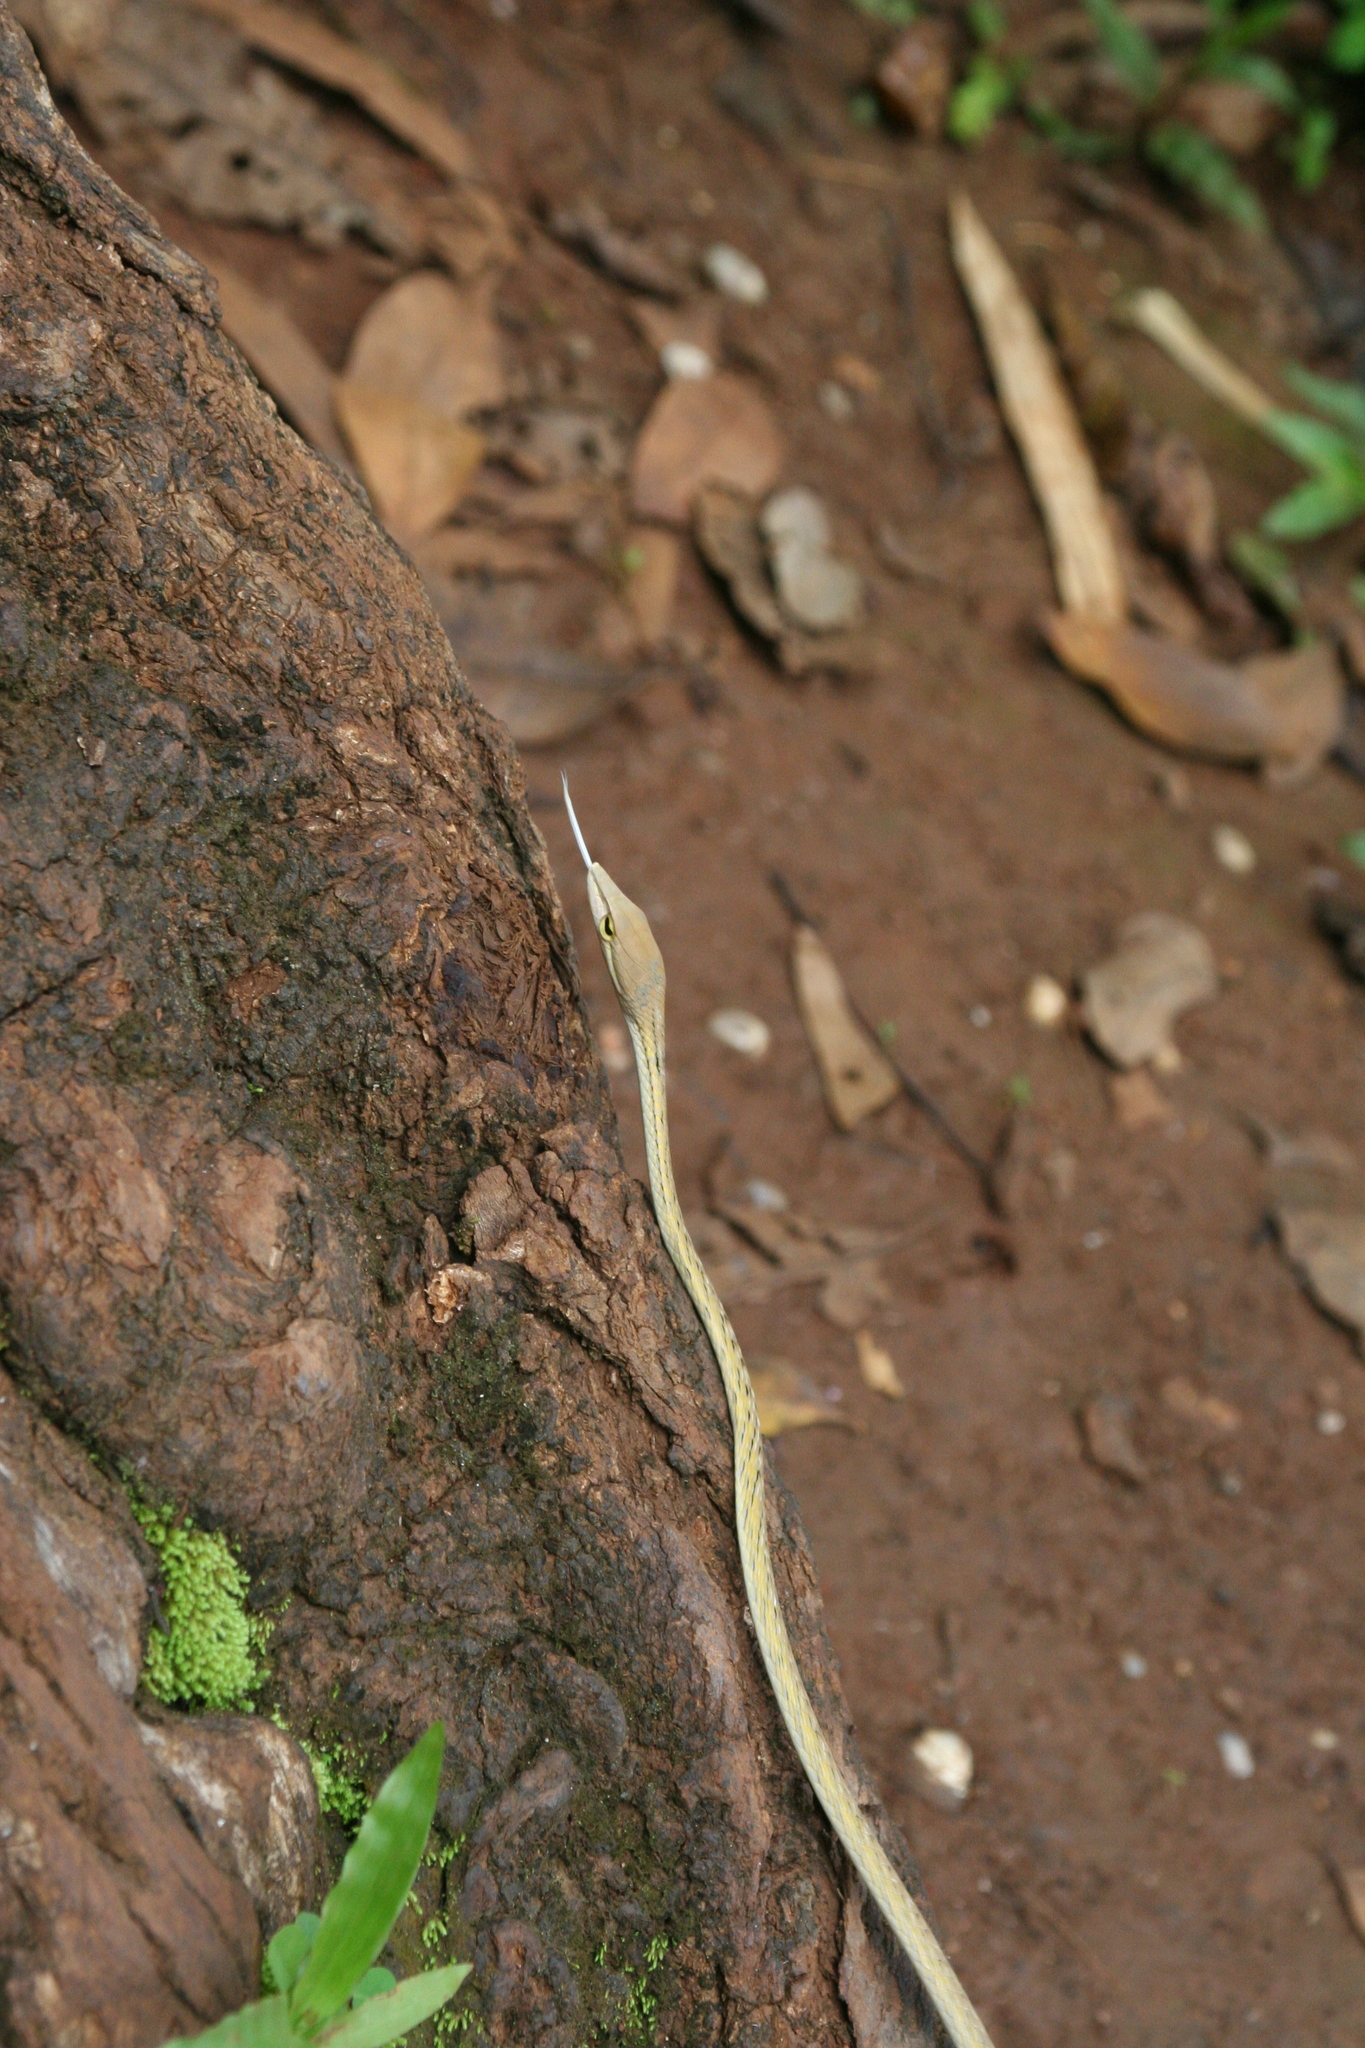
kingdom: Animalia
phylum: Chordata
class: Squamata
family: Colubridae
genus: Ahaetulla
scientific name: Ahaetulla prasina
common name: Oriental whip snake
